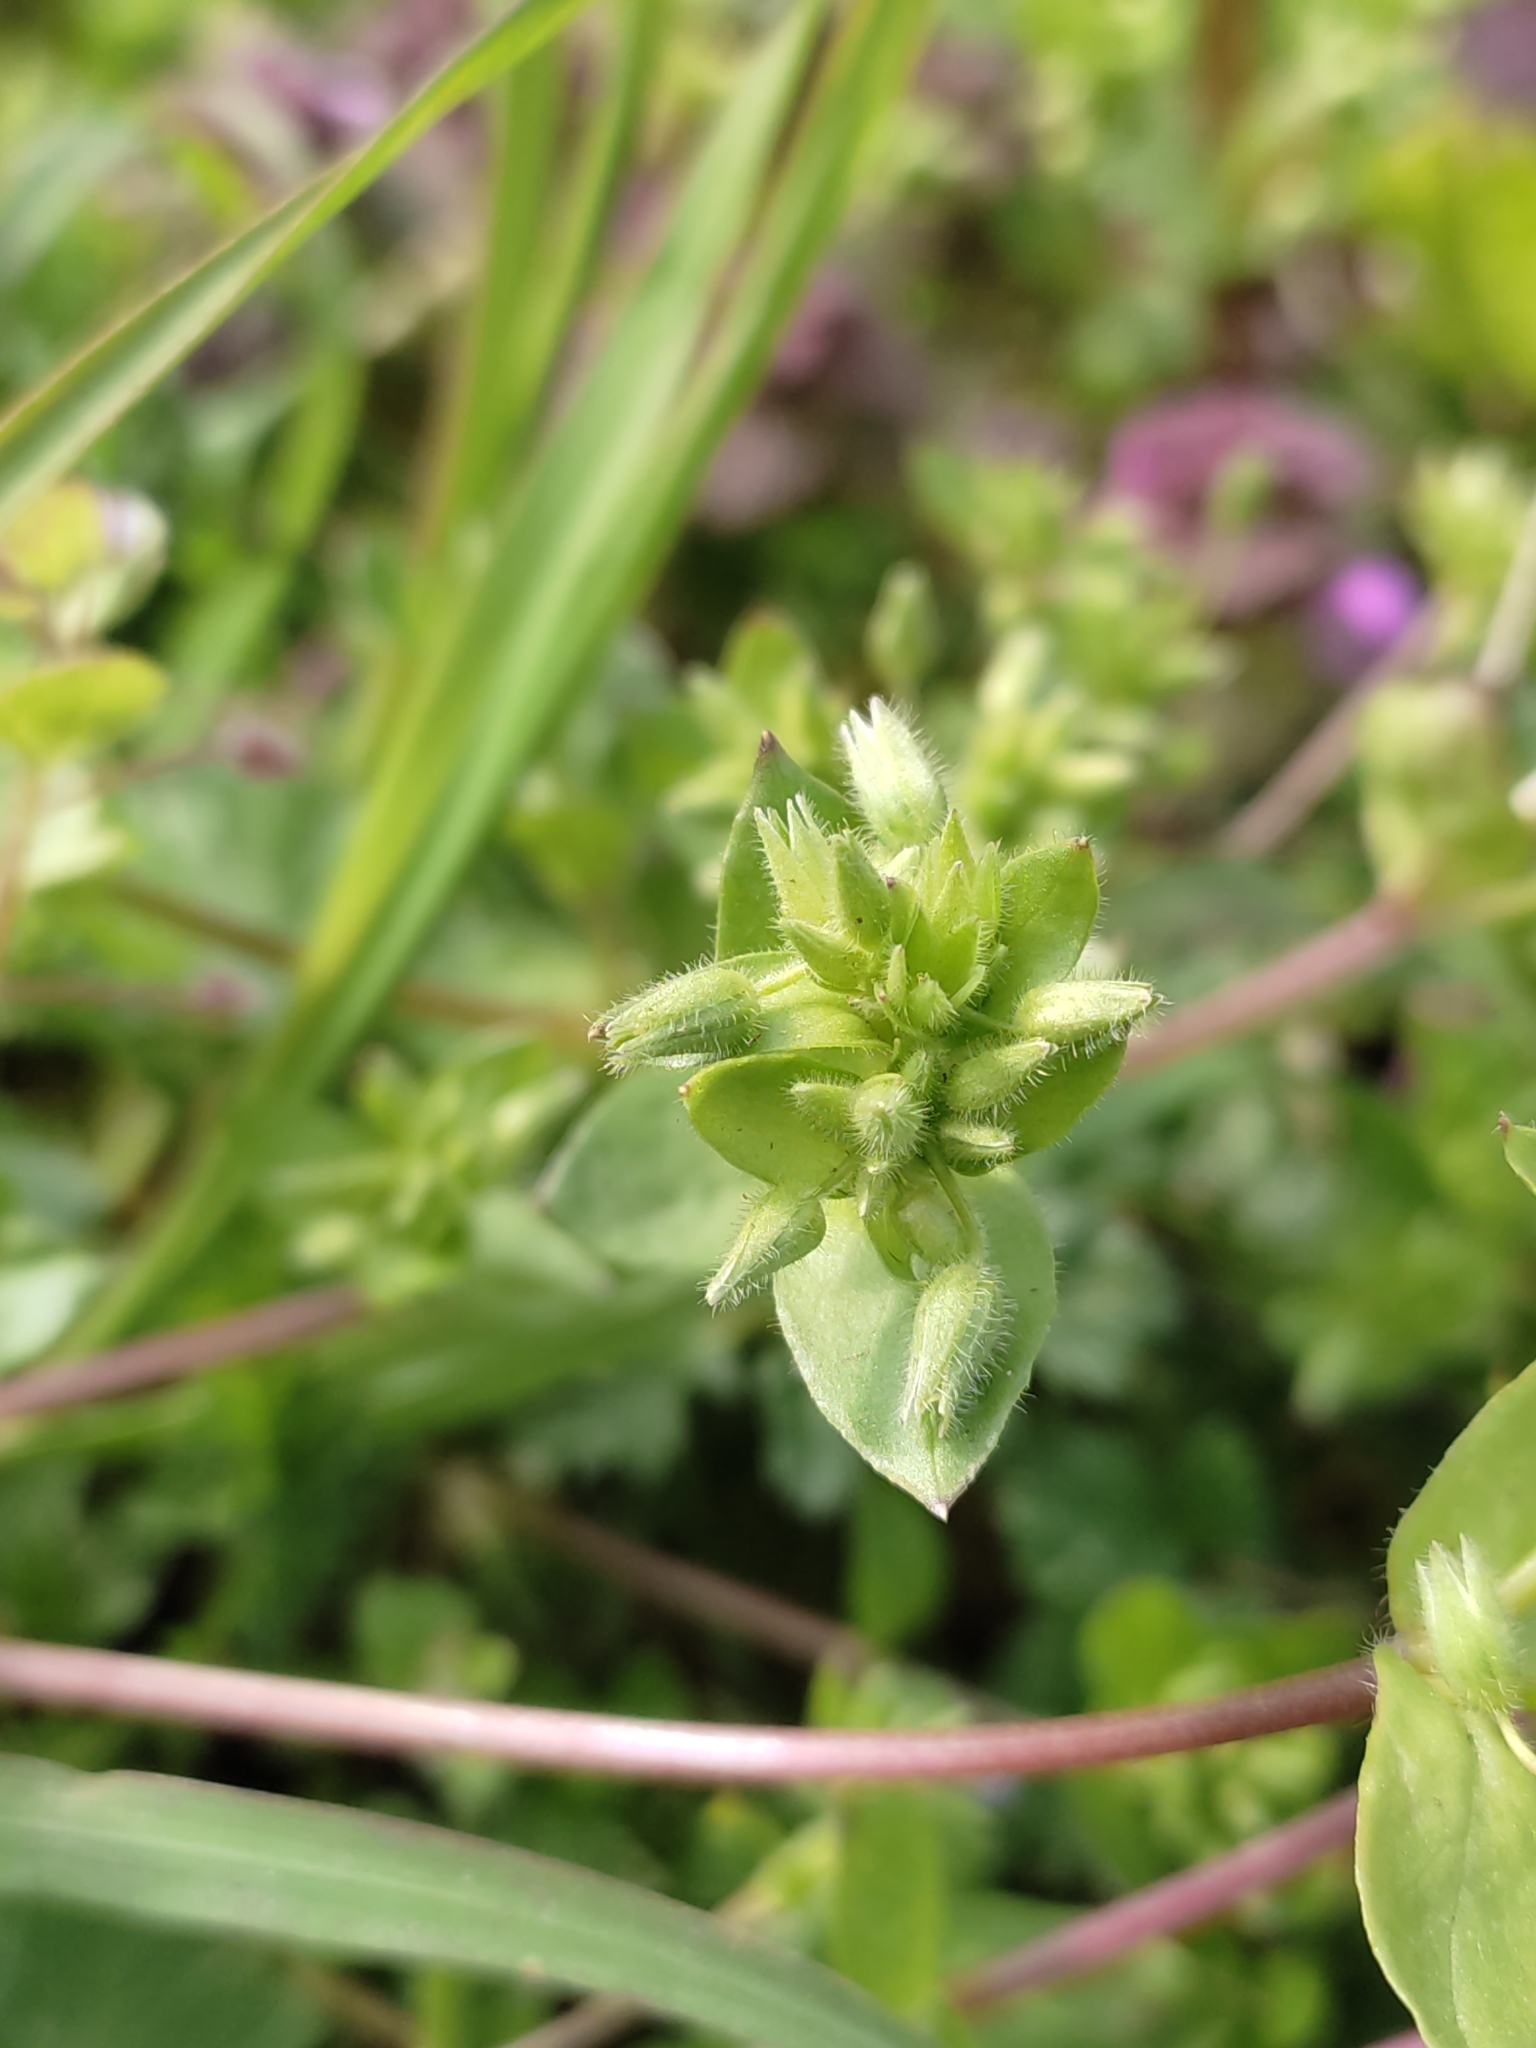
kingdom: Plantae
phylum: Tracheophyta
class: Magnoliopsida
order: Caryophyllales
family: Caryophyllaceae
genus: Stellaria
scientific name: Stellaria media
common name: Common chickweed
